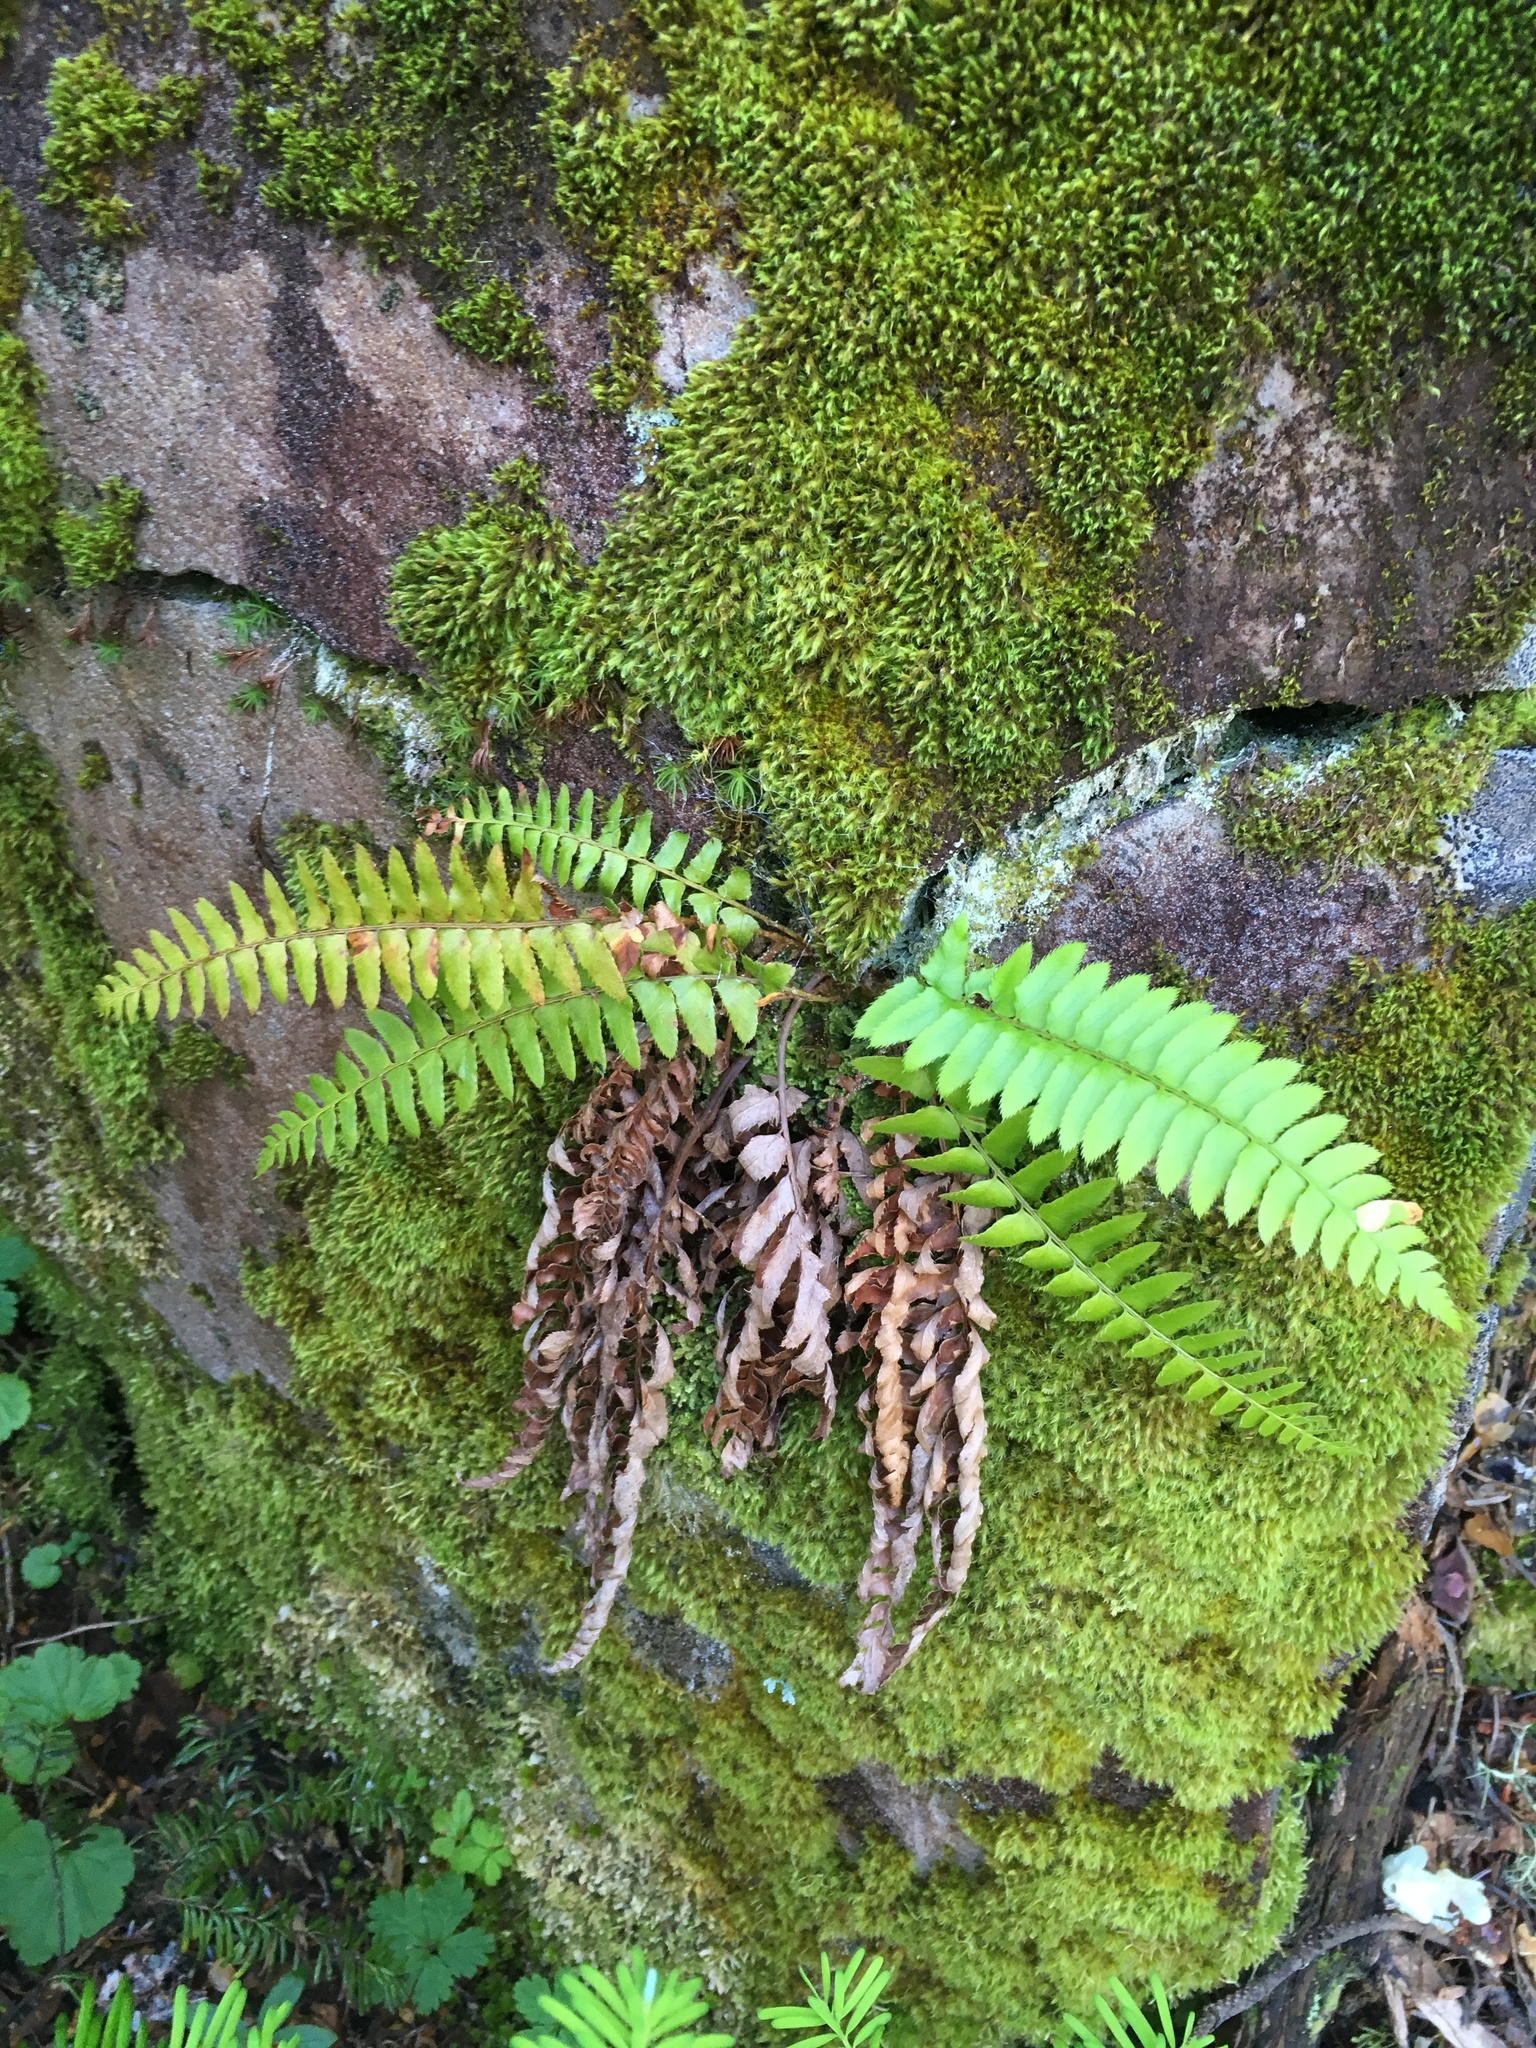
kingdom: Plantae
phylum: Tracheophyta
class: Polypodiopsida
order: Polypodiales
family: Dryopteridaceae
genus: Polystichum
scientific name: Polystichum munitum
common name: Western sword-fern
